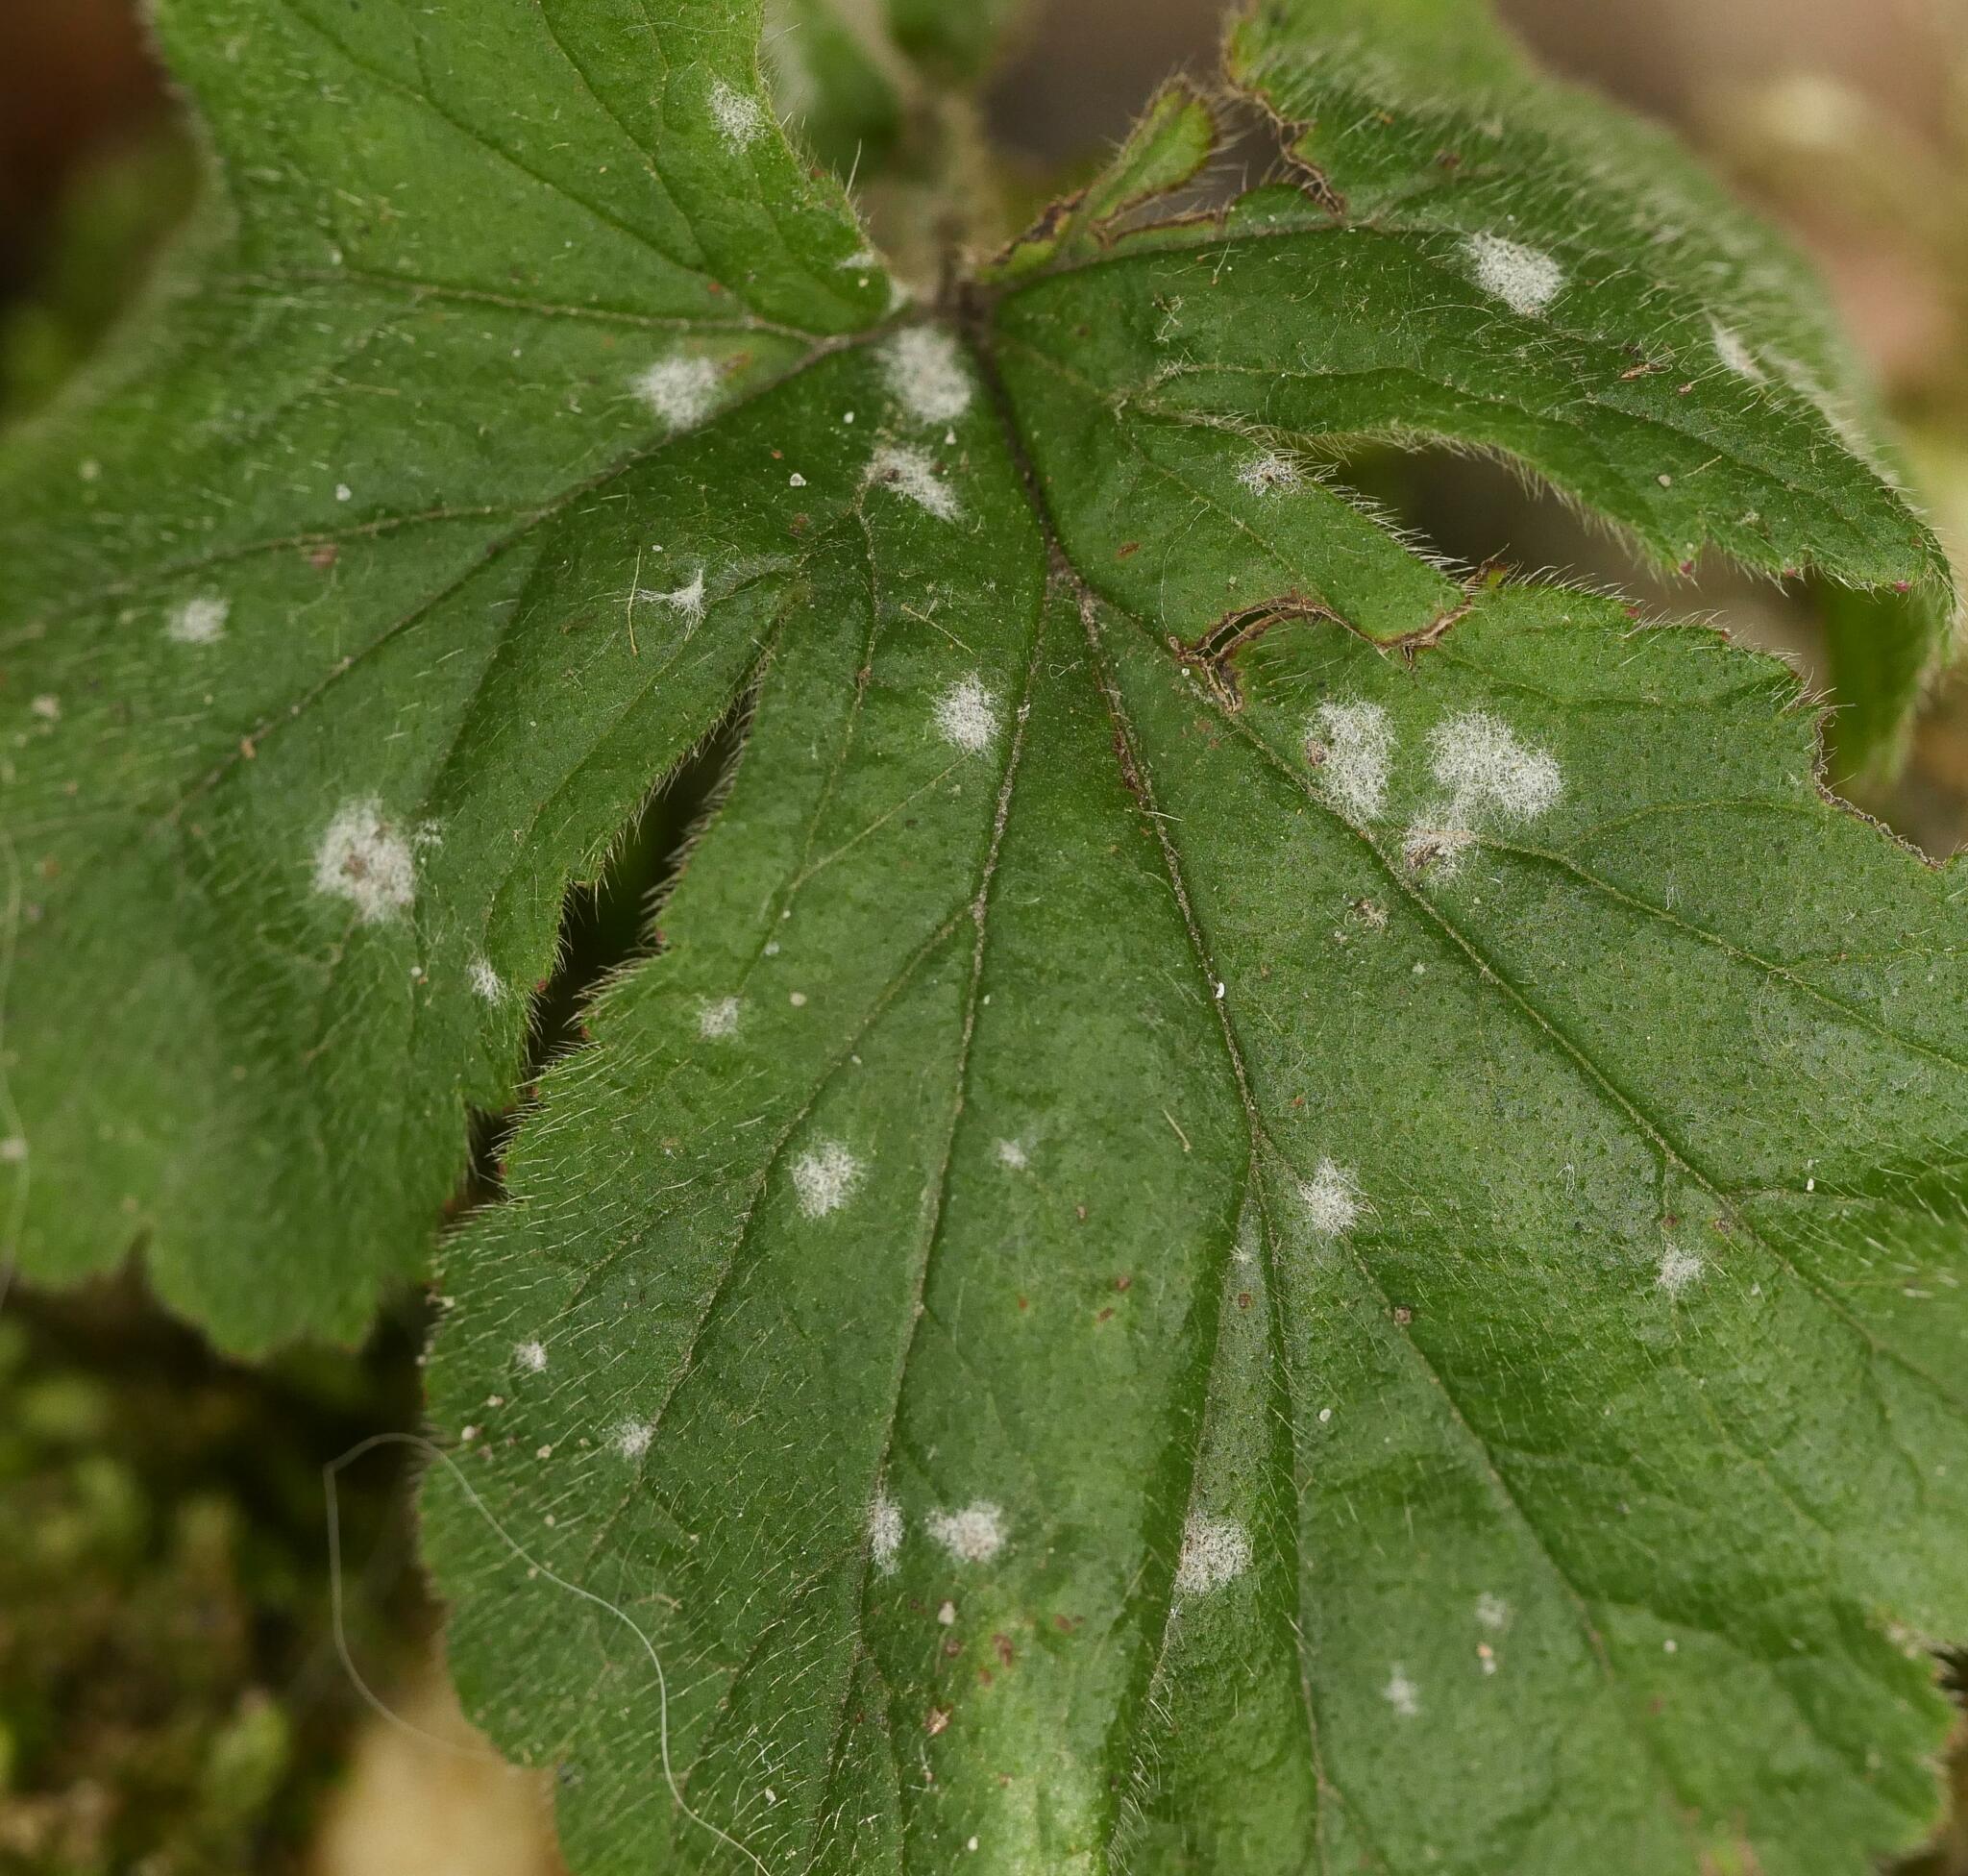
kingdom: Fungi
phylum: Ascomycota
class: Leotiomycetes
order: Helotiales
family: Erysiphaceae
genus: Podosphaera
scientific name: Podosphaera aphanis
